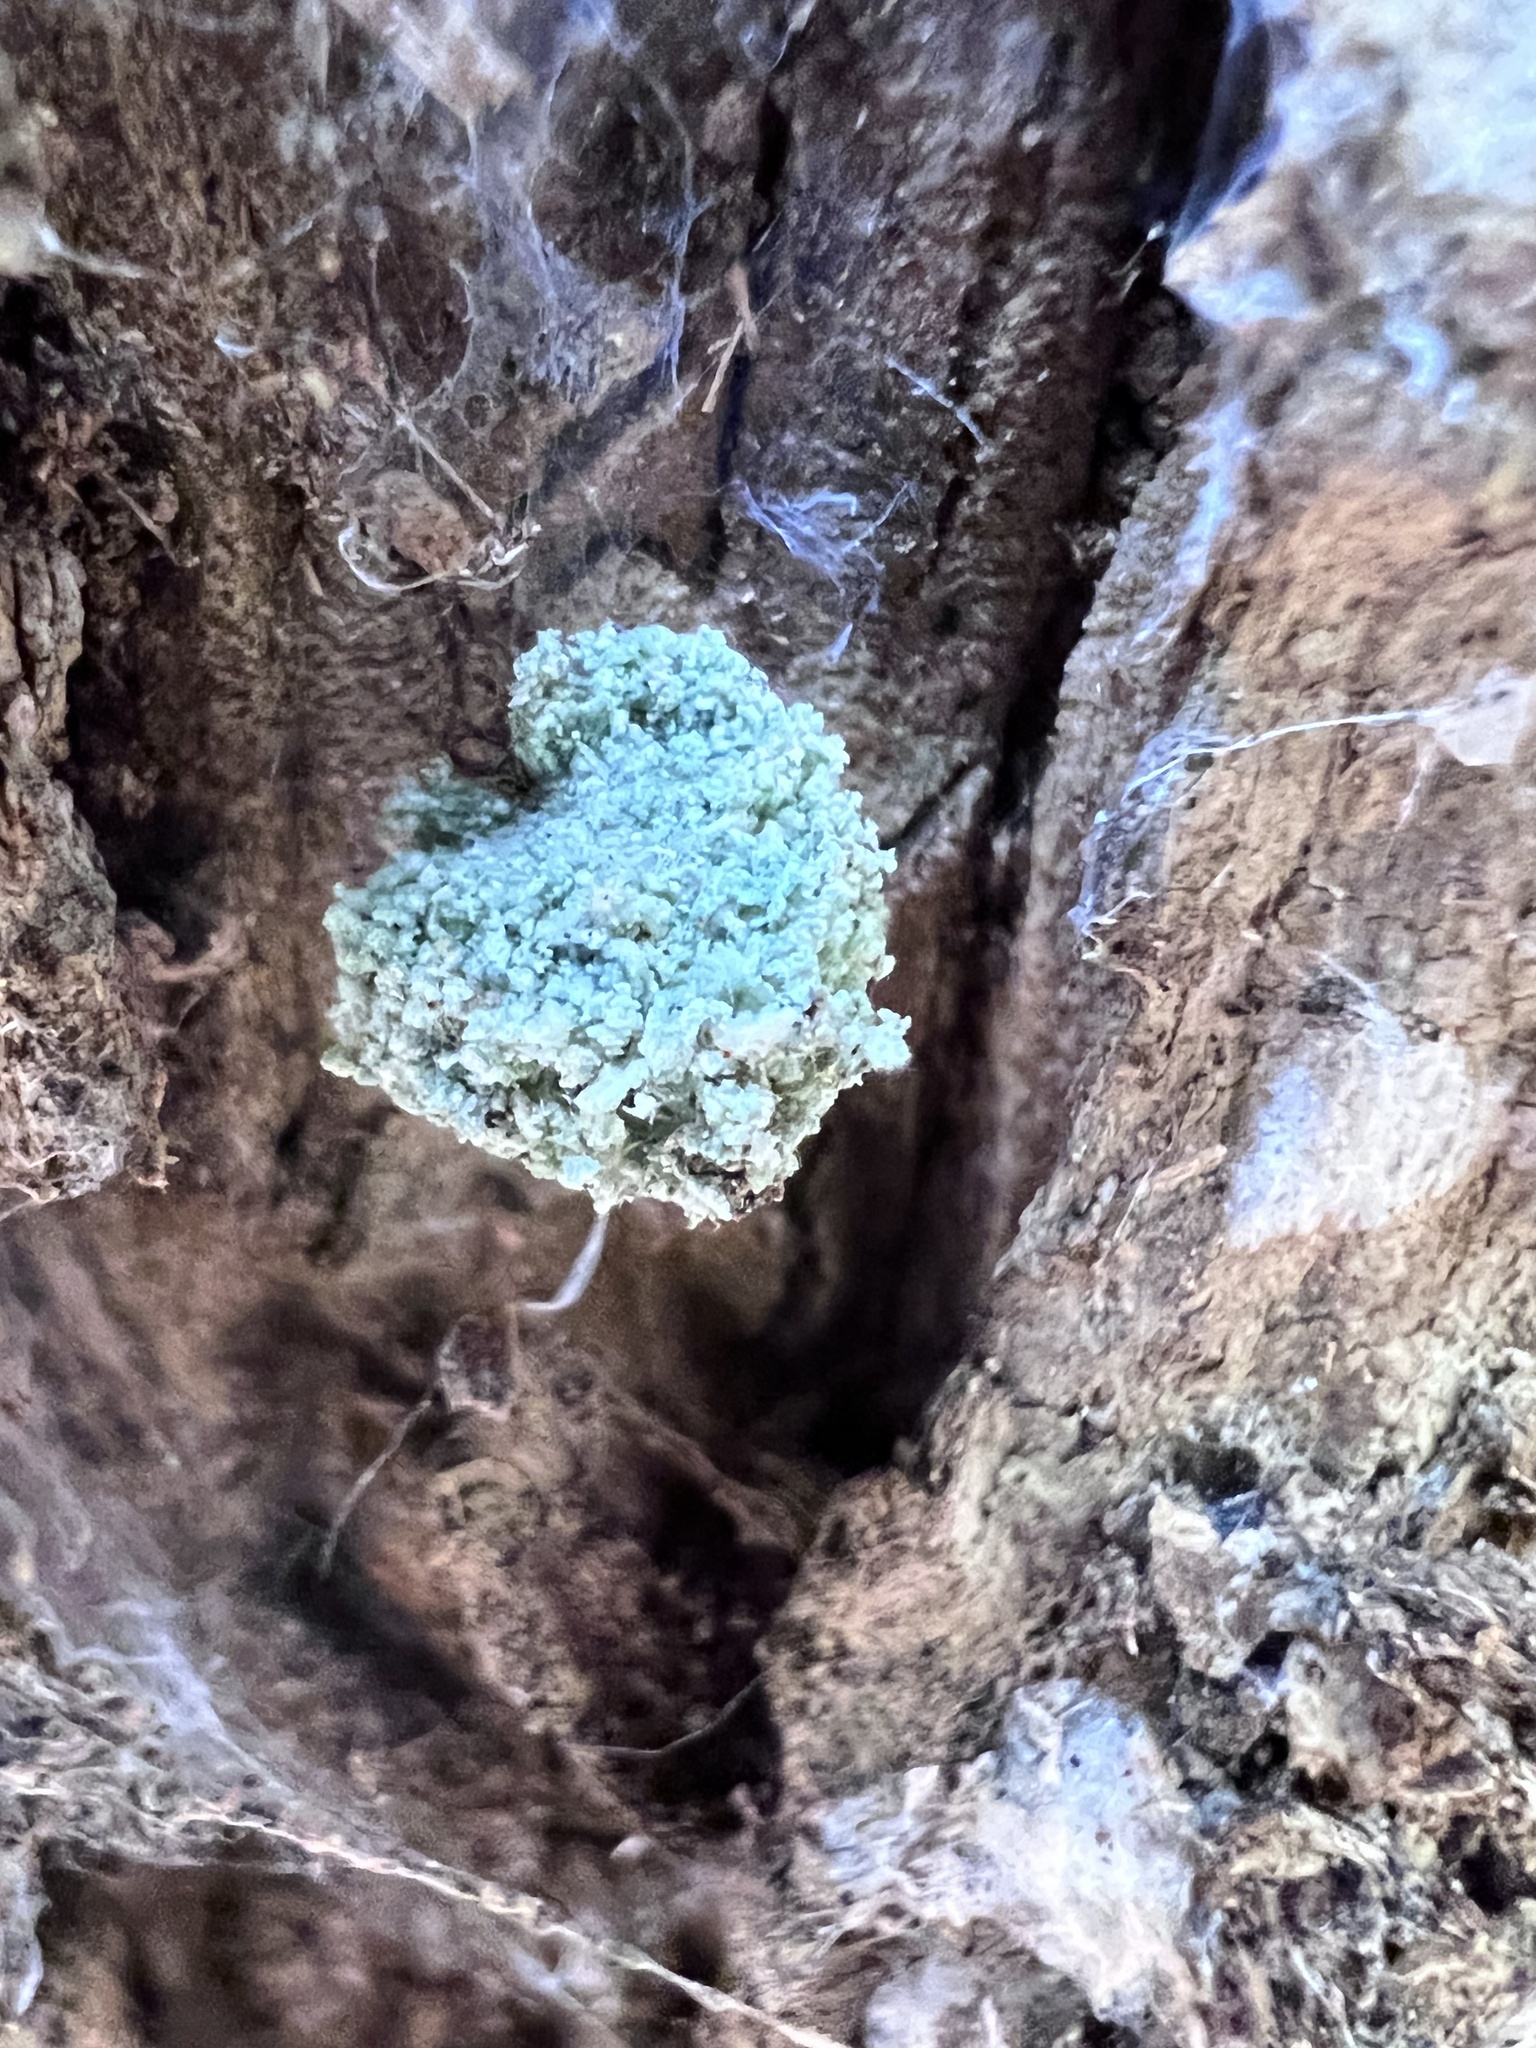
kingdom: Animalia
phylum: Arthropoda
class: Insecta
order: Neuroptera
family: Chrysopidae
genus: Leucochrysa
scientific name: Leucochrysa pavida
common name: Lichen-carrying green lacewing
